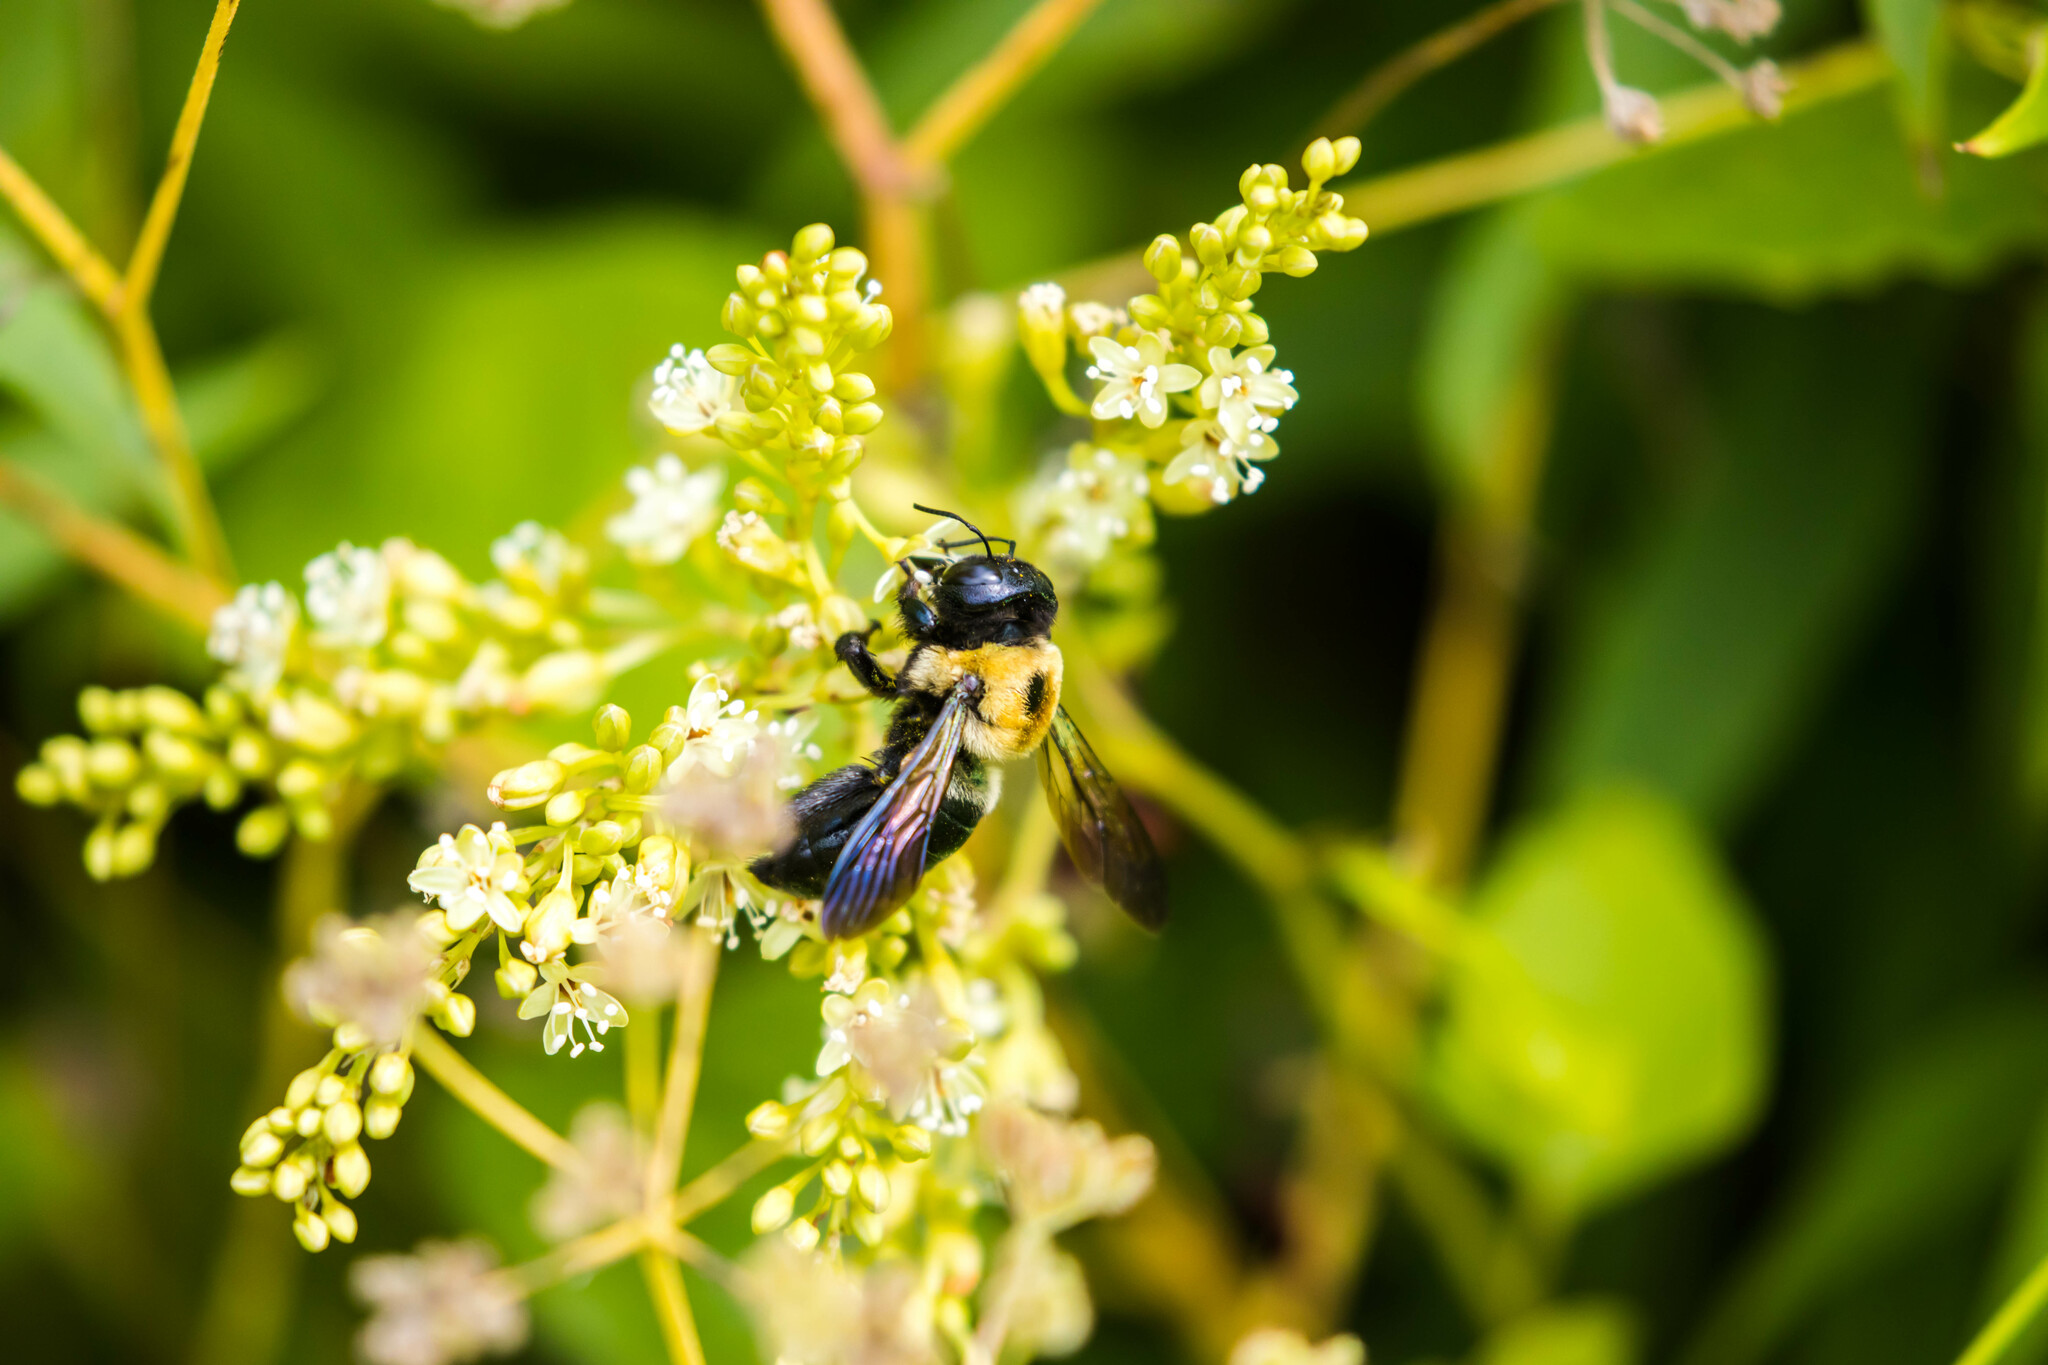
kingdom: Animalia
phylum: Arthropoda
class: Insecta
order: Hymenoptera
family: Apidae
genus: Xylocopa
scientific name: Xylocopa virginica
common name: Carpenter bee
